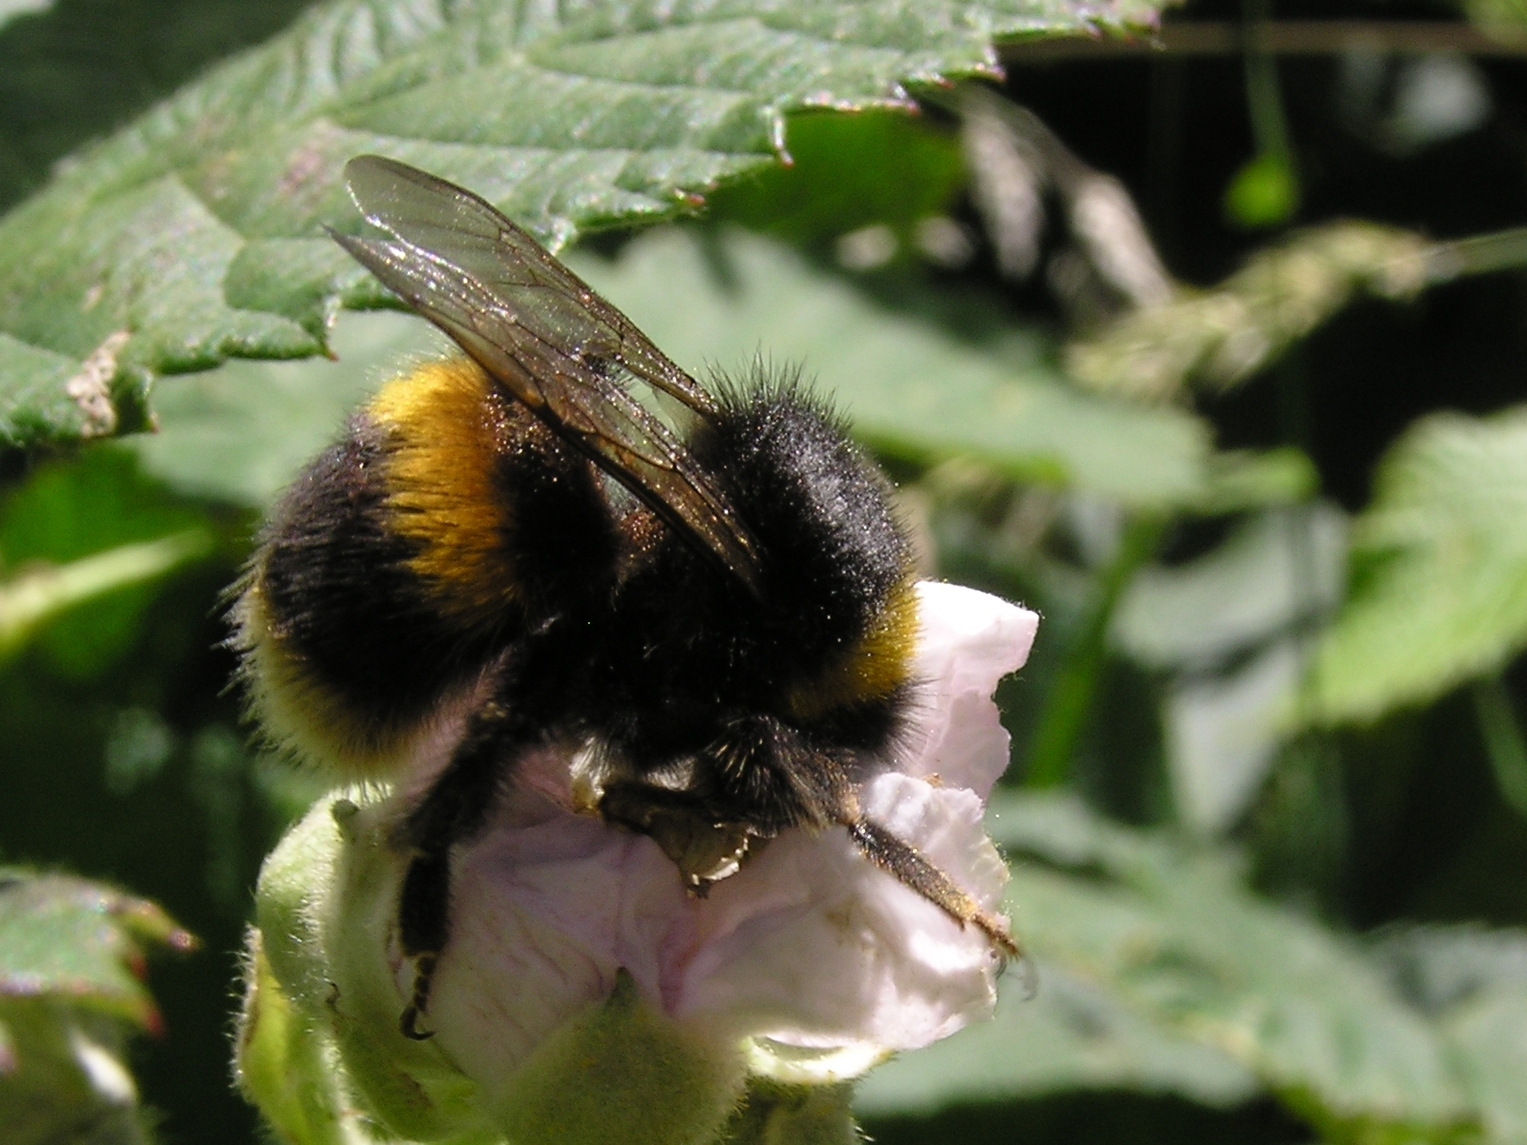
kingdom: Animalia
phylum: Arthropoda
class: Insecta
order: Hymenoptera
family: Apidae
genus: Bombus
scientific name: Bombus terrestris
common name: Buff-tailed bumblebee
